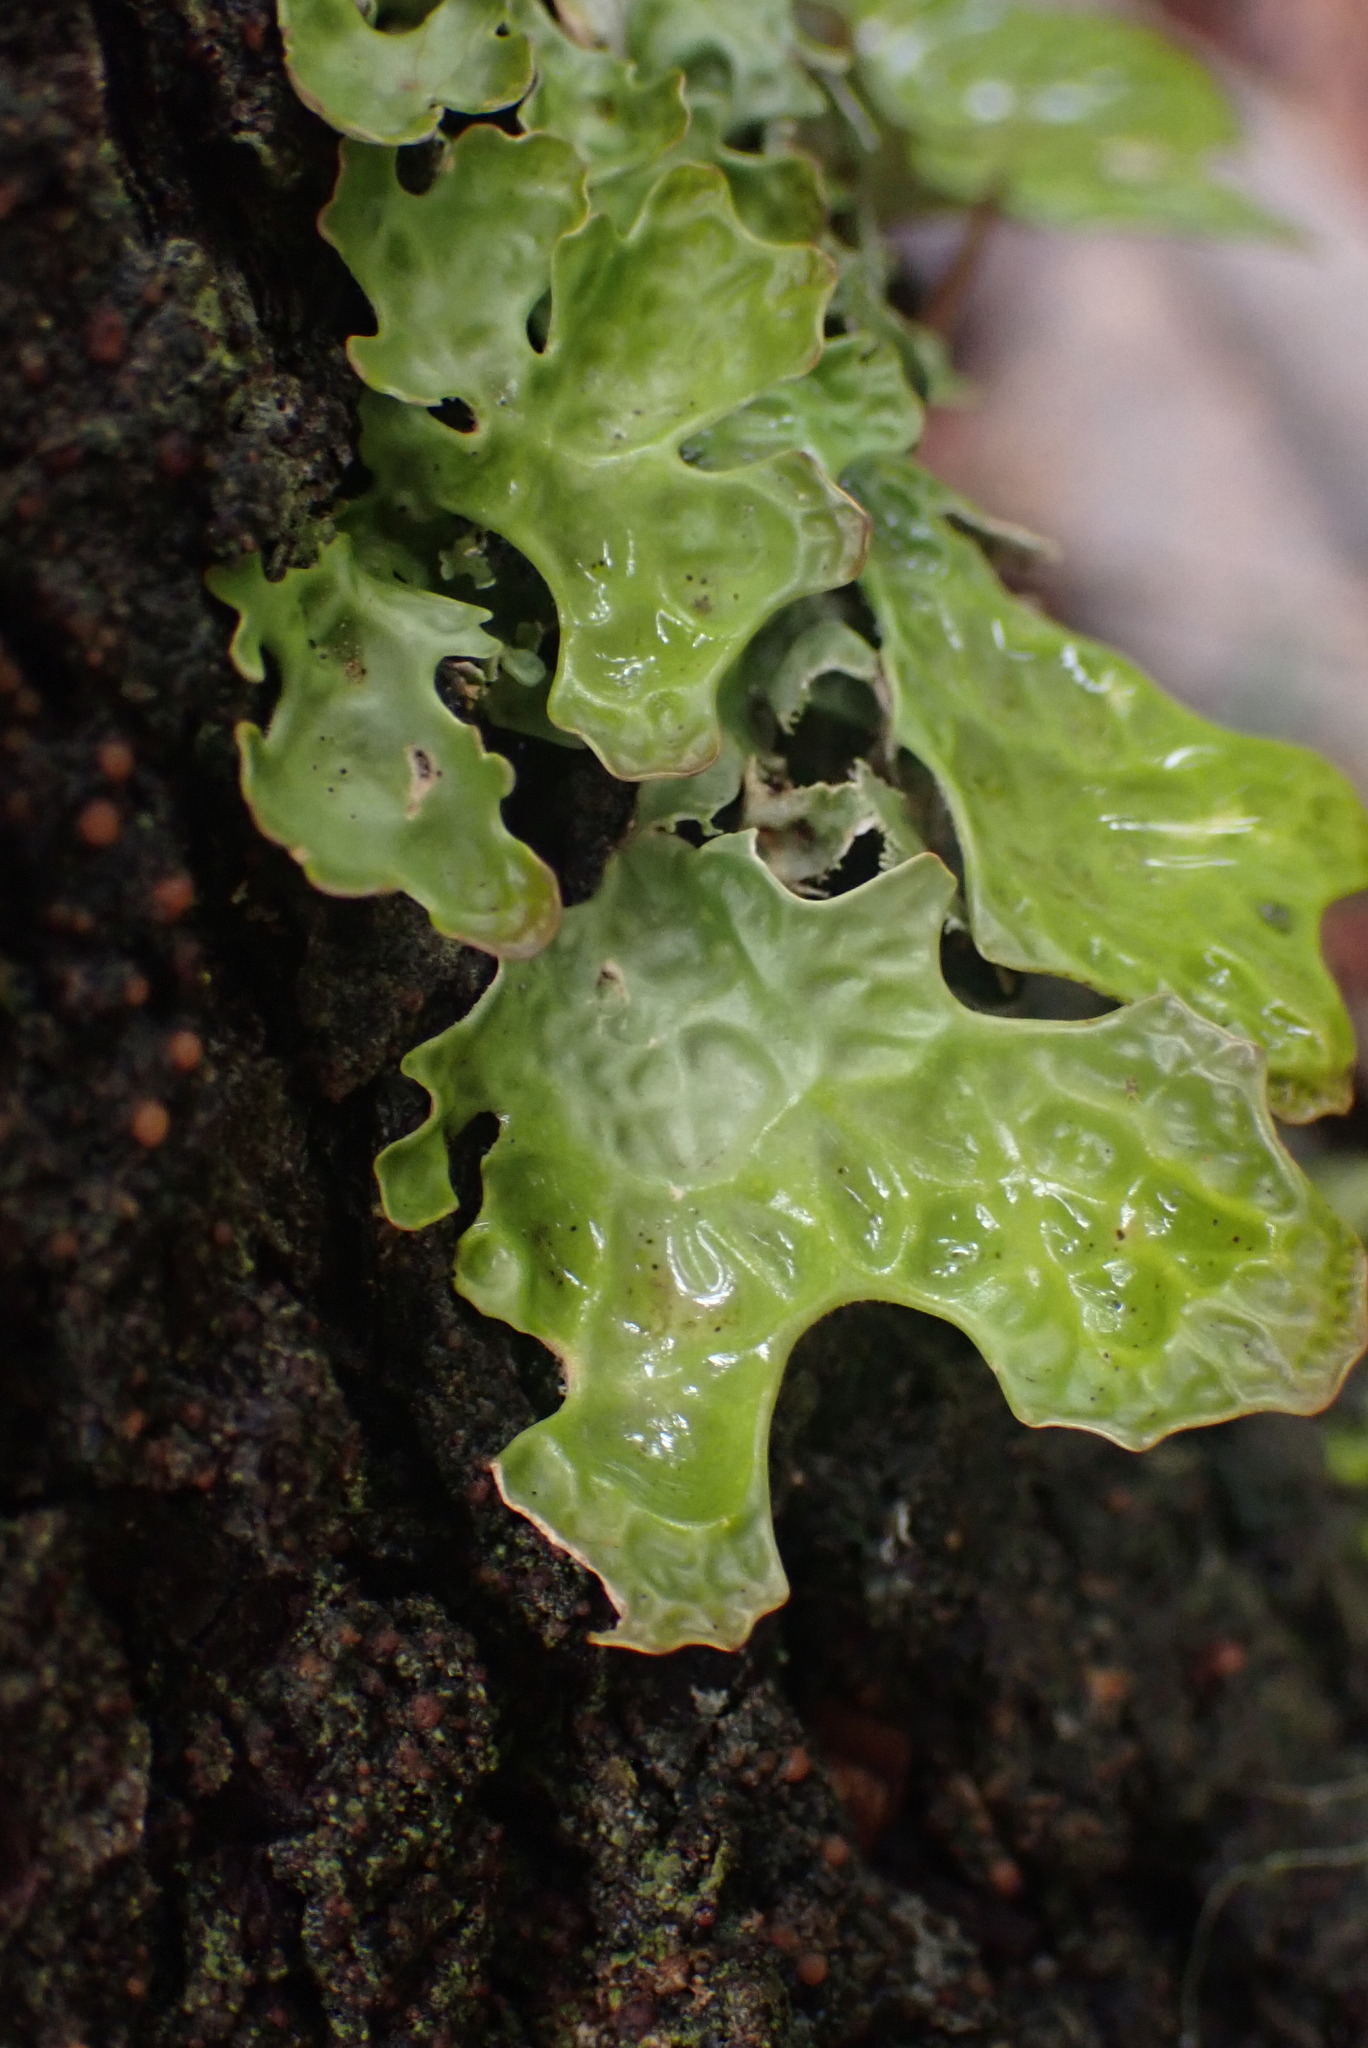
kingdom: Fungi
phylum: Ascomycota
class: Lecanoromycetes
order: Peltigerales
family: Lobariaceae
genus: Lobaria
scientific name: Lobaria pulmonaria
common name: Lungwort
